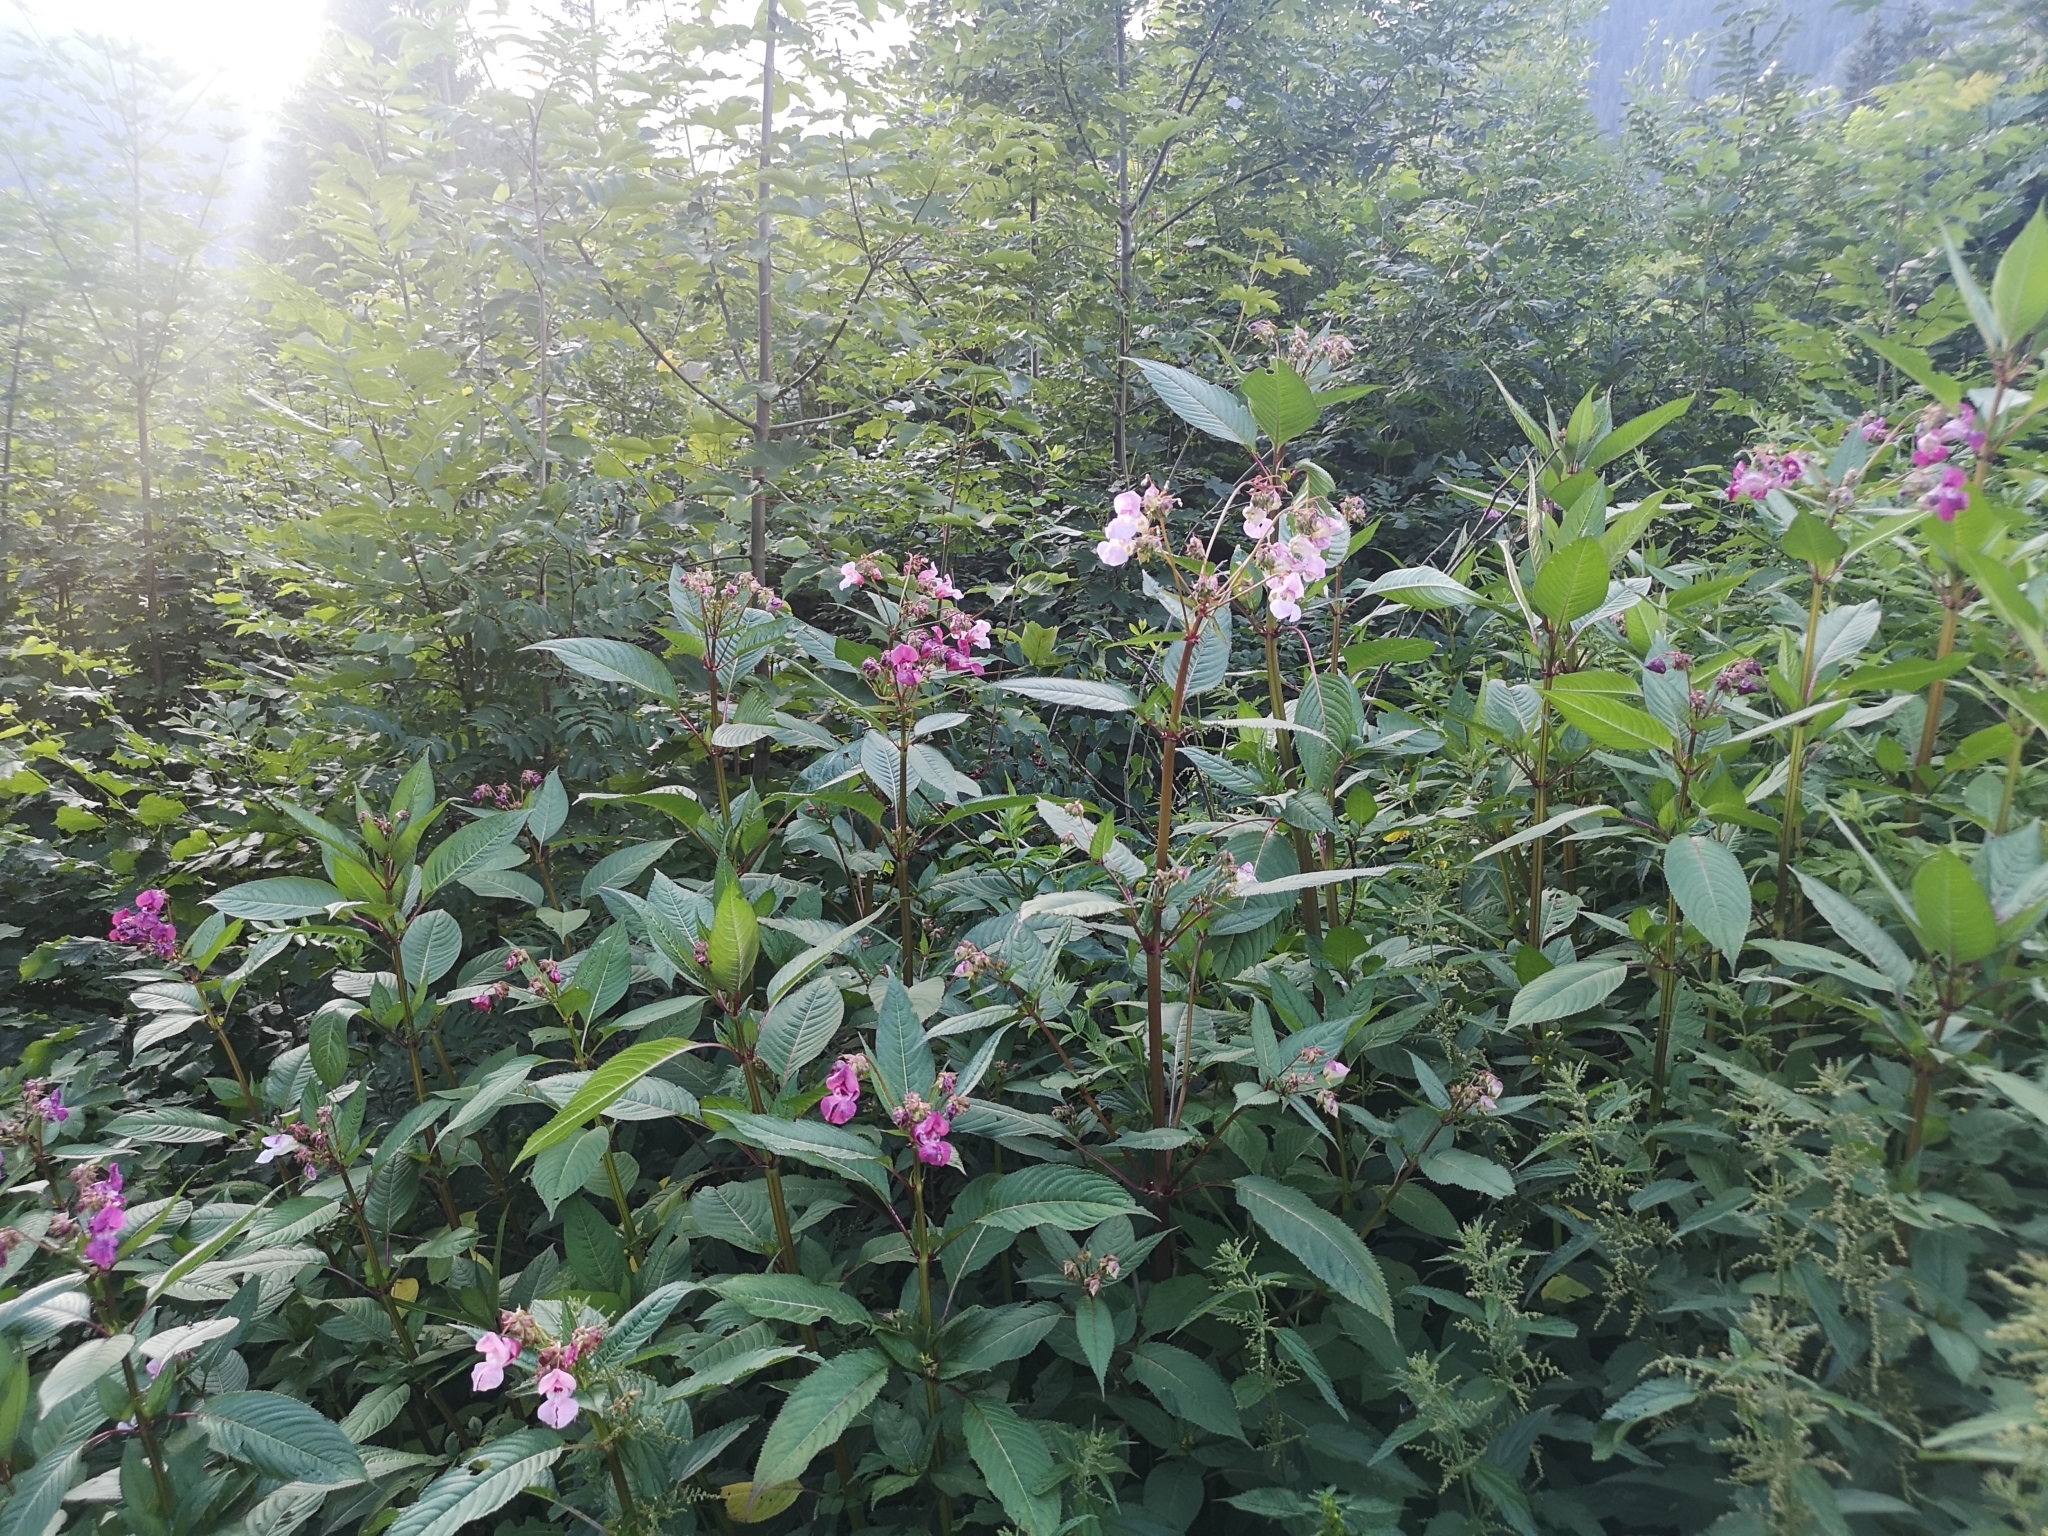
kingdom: Plantae
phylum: Tracheophyta
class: Magnoliopsida
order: Ericales
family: Balsaminaceae
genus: Impatiens
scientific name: Impatiens glandulifera
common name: Himalayan balsam
